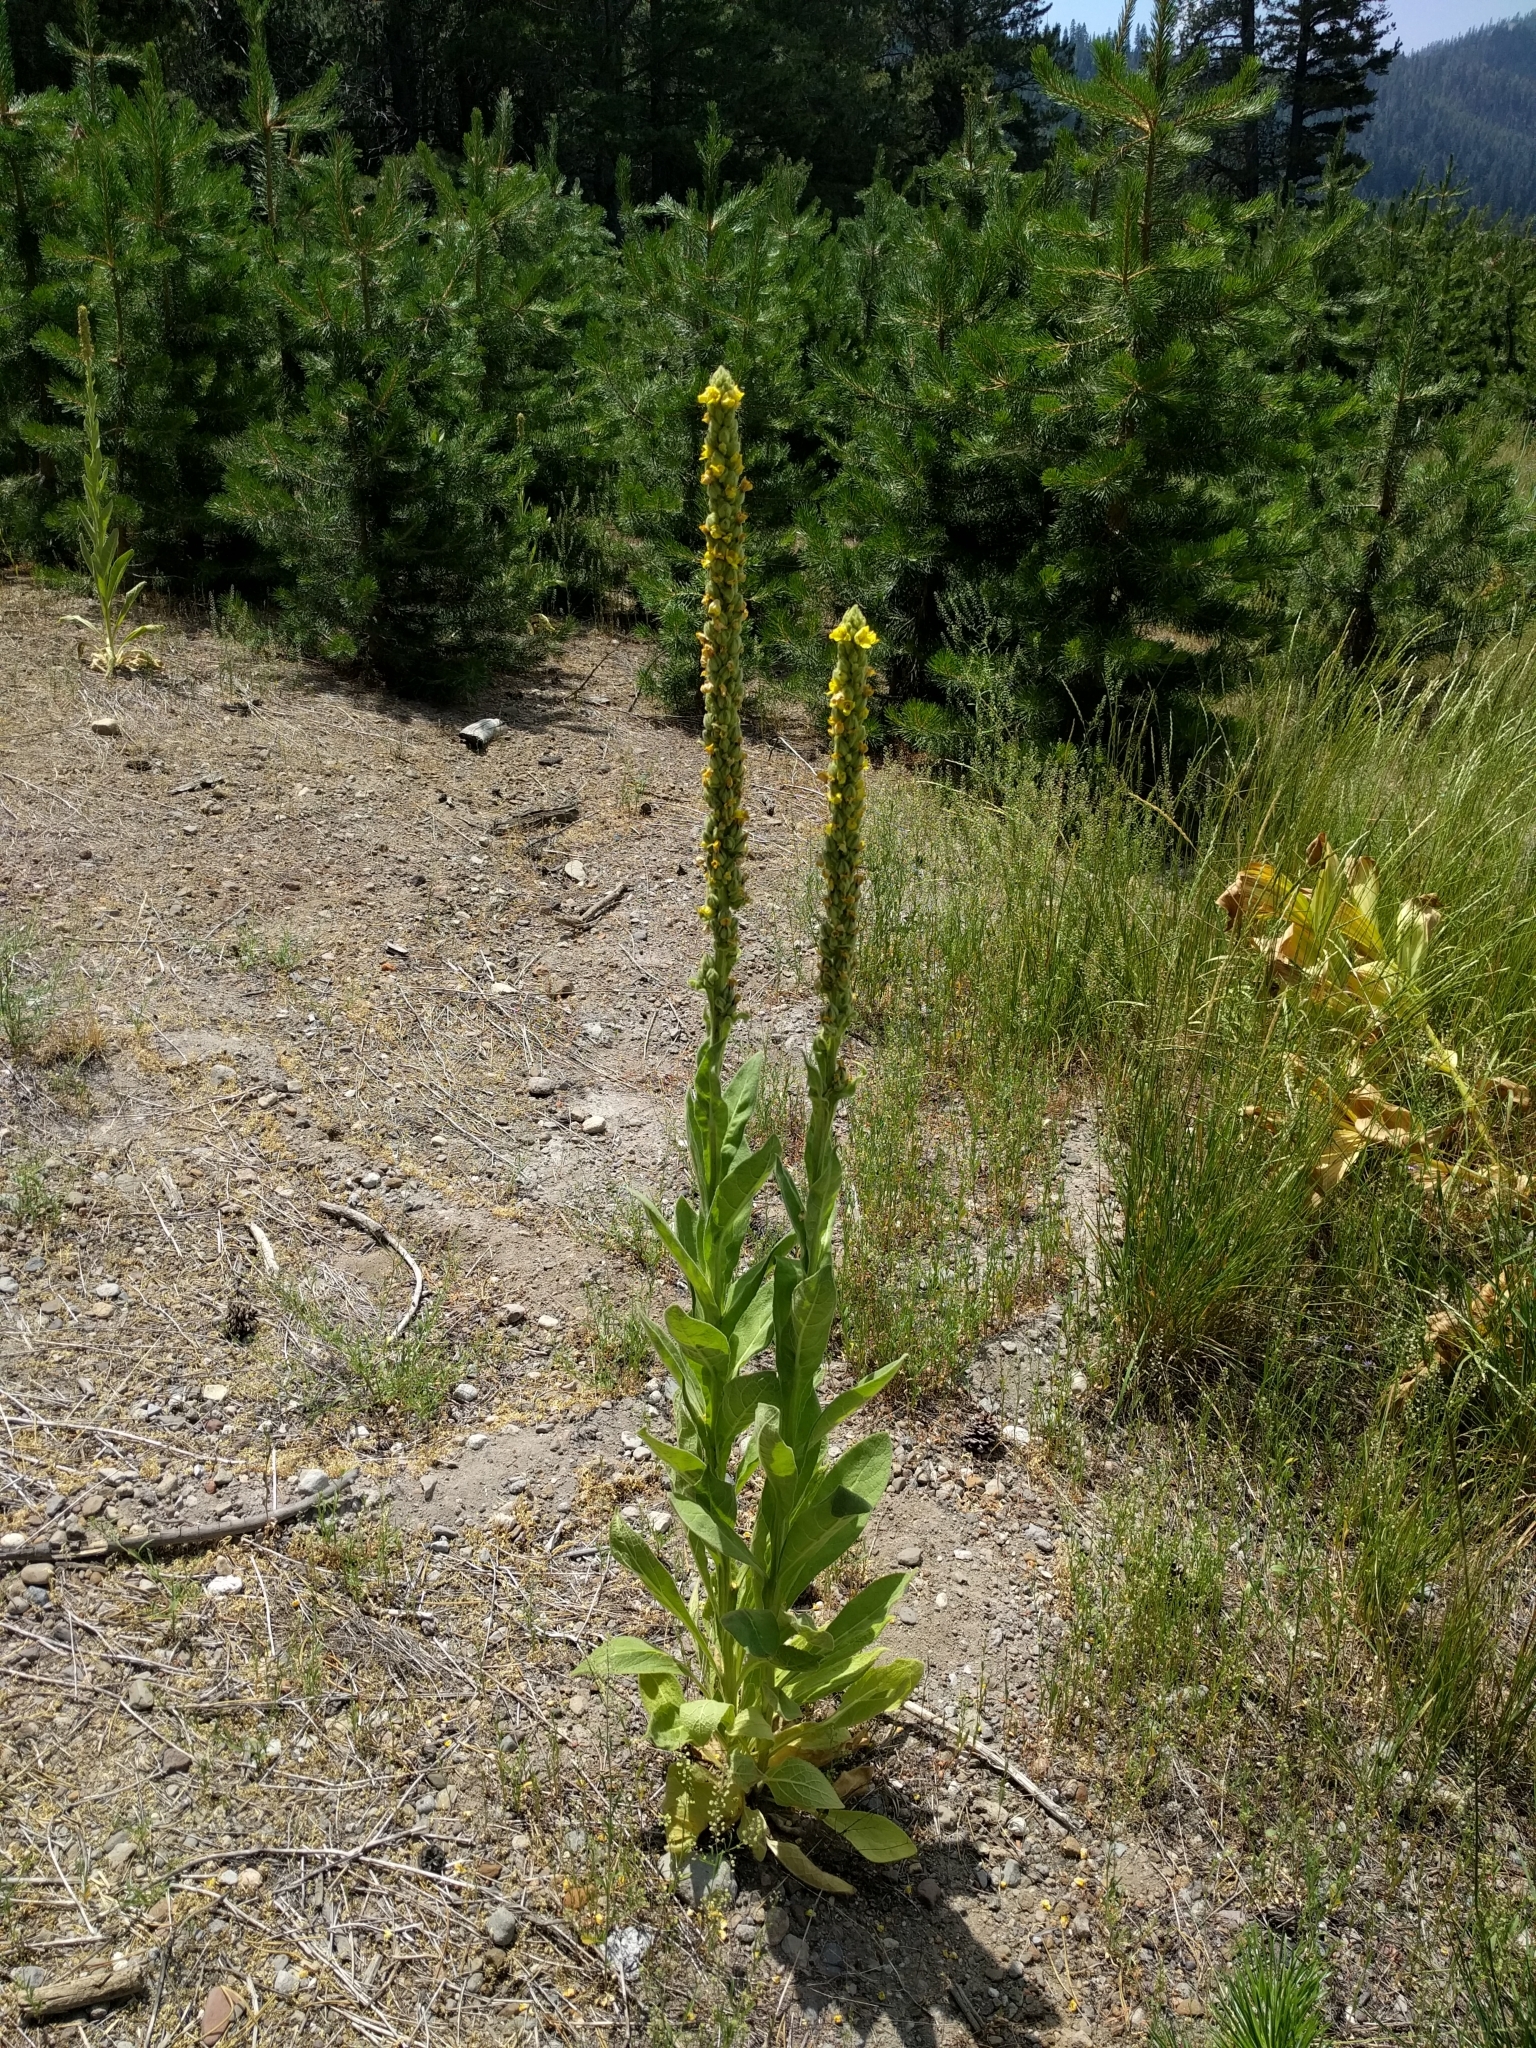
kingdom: Plantae
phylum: Tracheophyta
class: Magnoliopsida
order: Lamiales
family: Scrophulariaceae
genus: Verbascum
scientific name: Verbascum thapsus
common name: Common mullein
